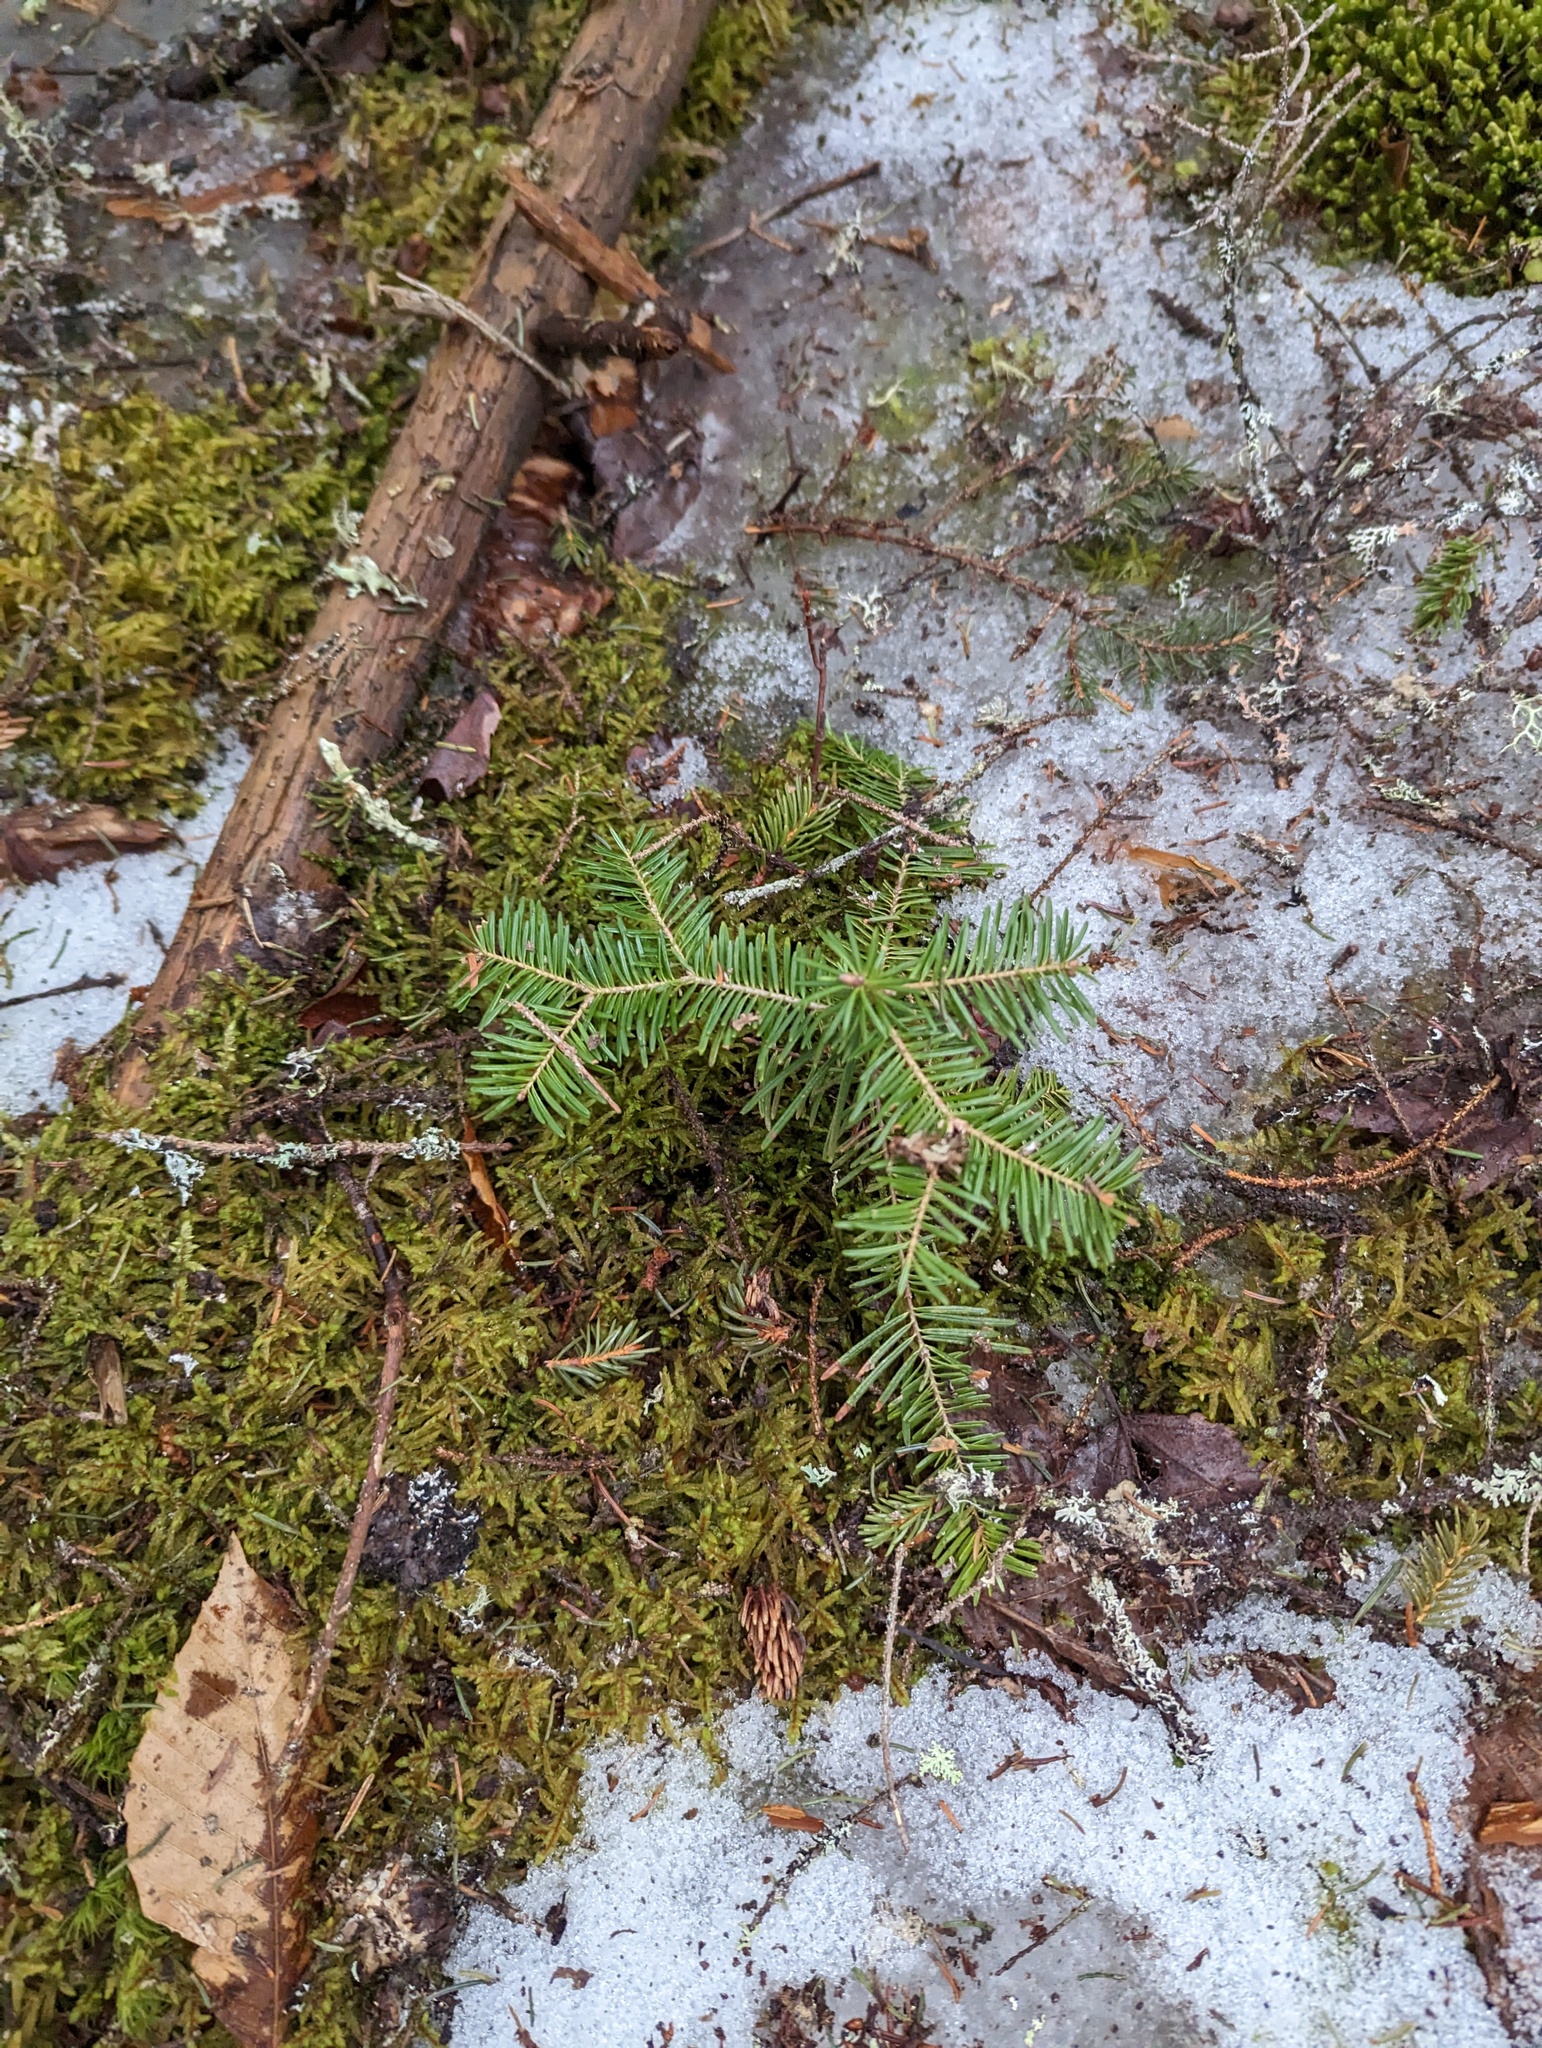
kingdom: Plantae
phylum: Tracheophyta
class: Pinopsida
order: Pinales
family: Pinaceae
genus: Abies
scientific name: Abies balsamea
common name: Balsam fir
